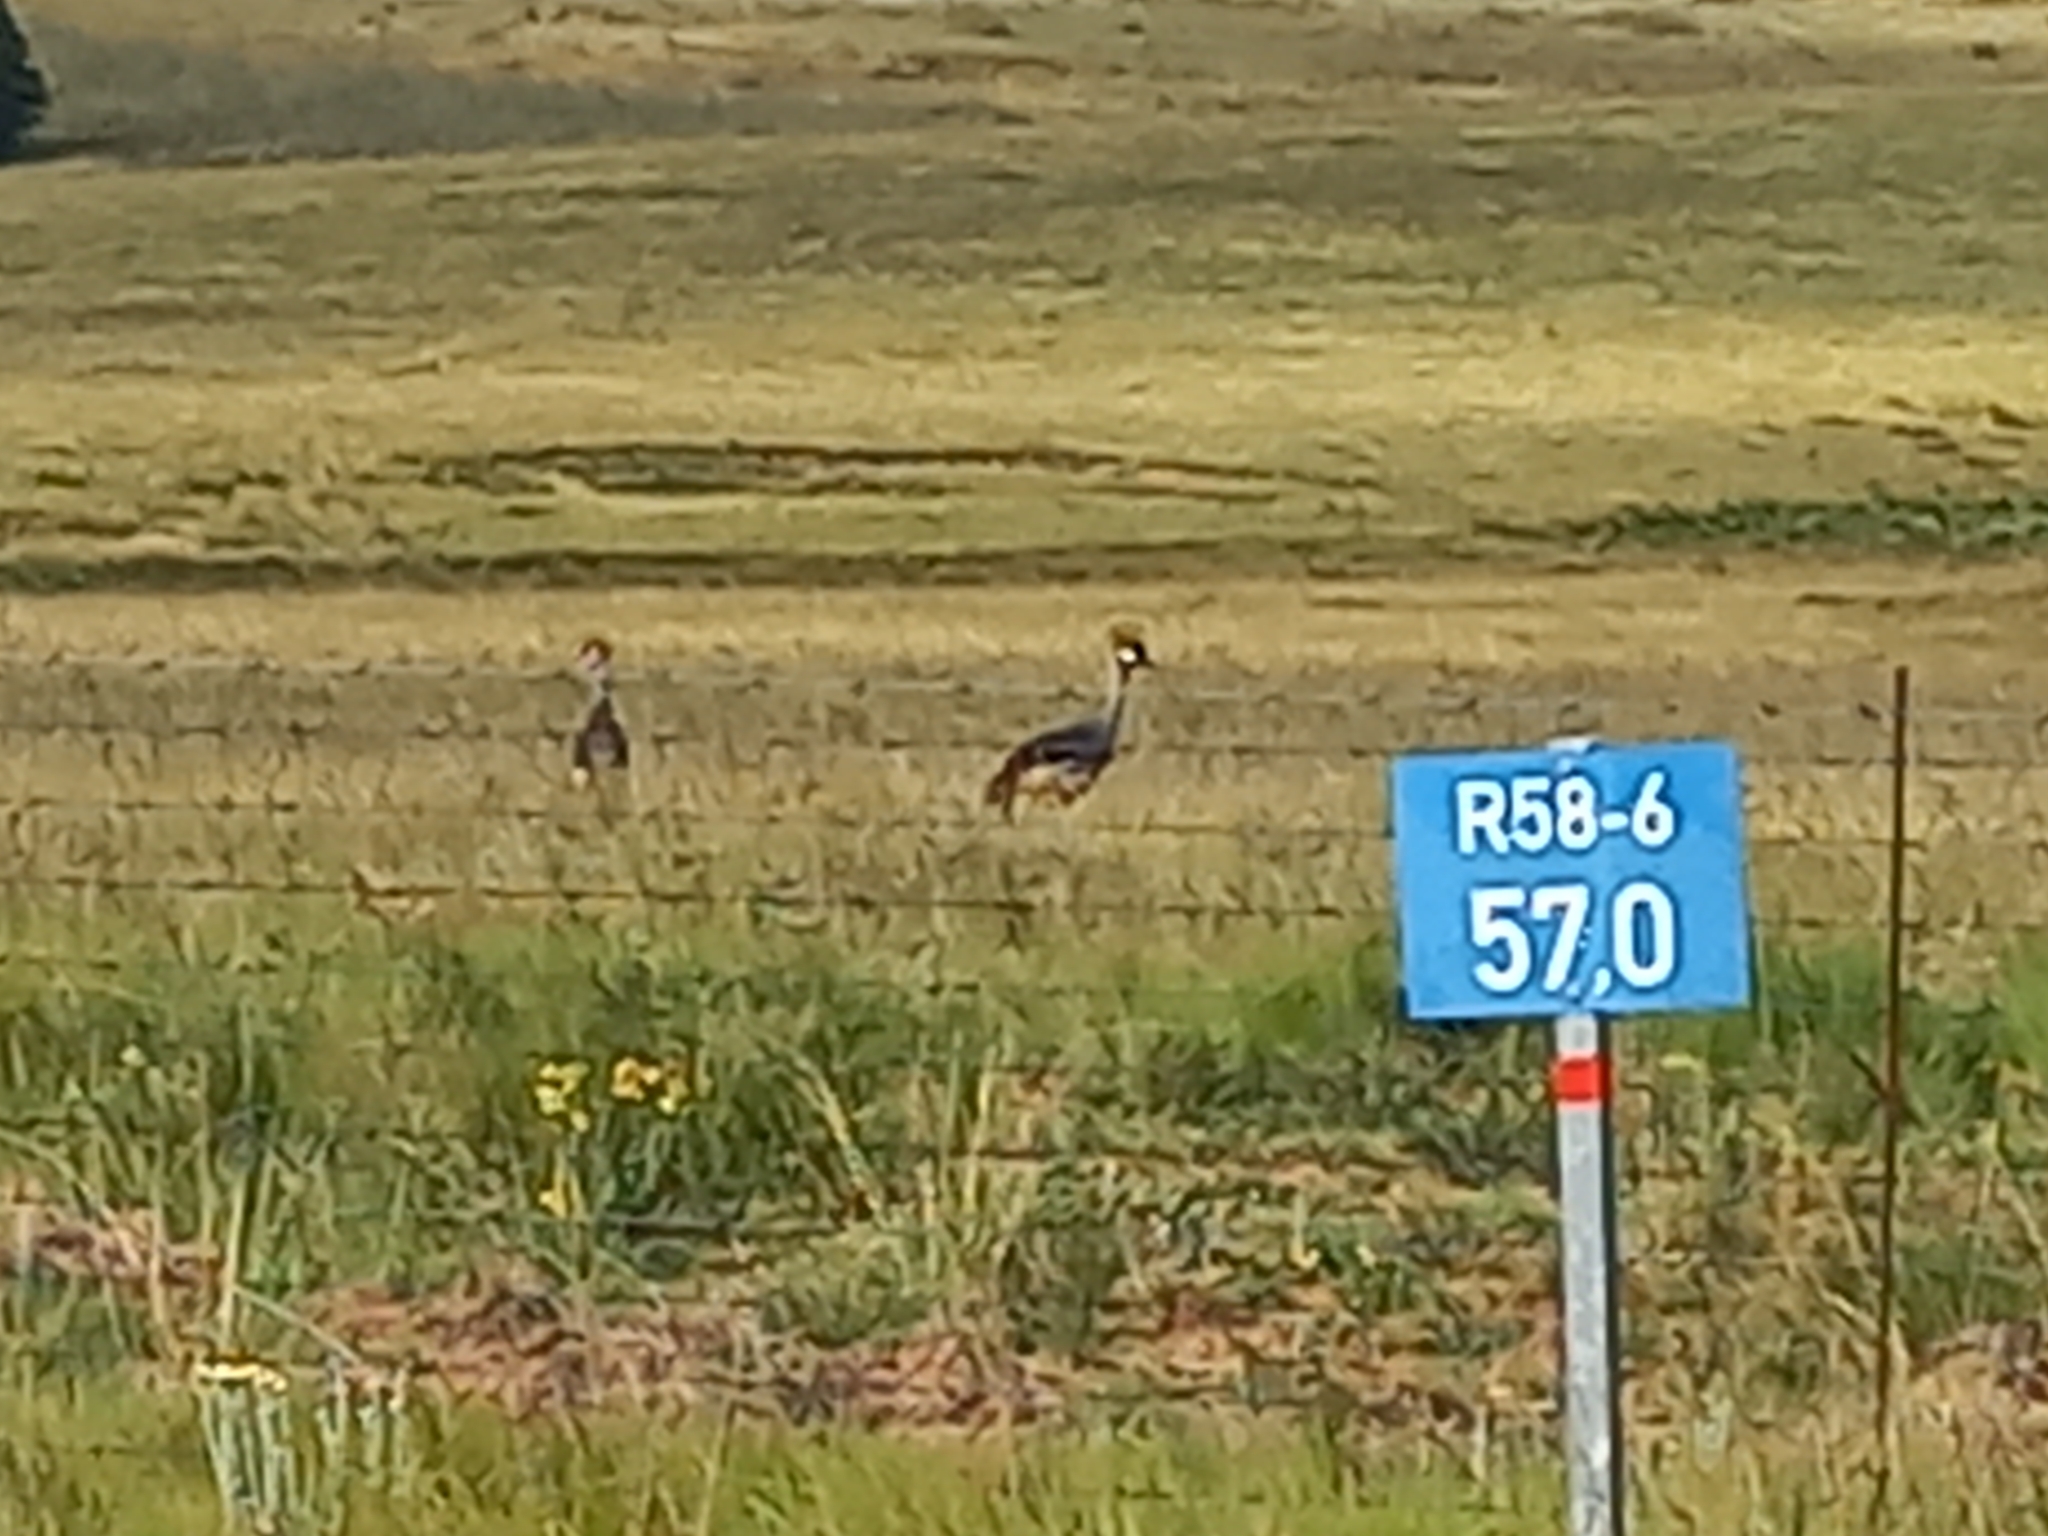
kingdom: Animalia
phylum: Chordata
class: Aves
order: Gruiformes
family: Gruidae
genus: Balearica
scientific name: Balearica regulorum
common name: Grey crowned crane
